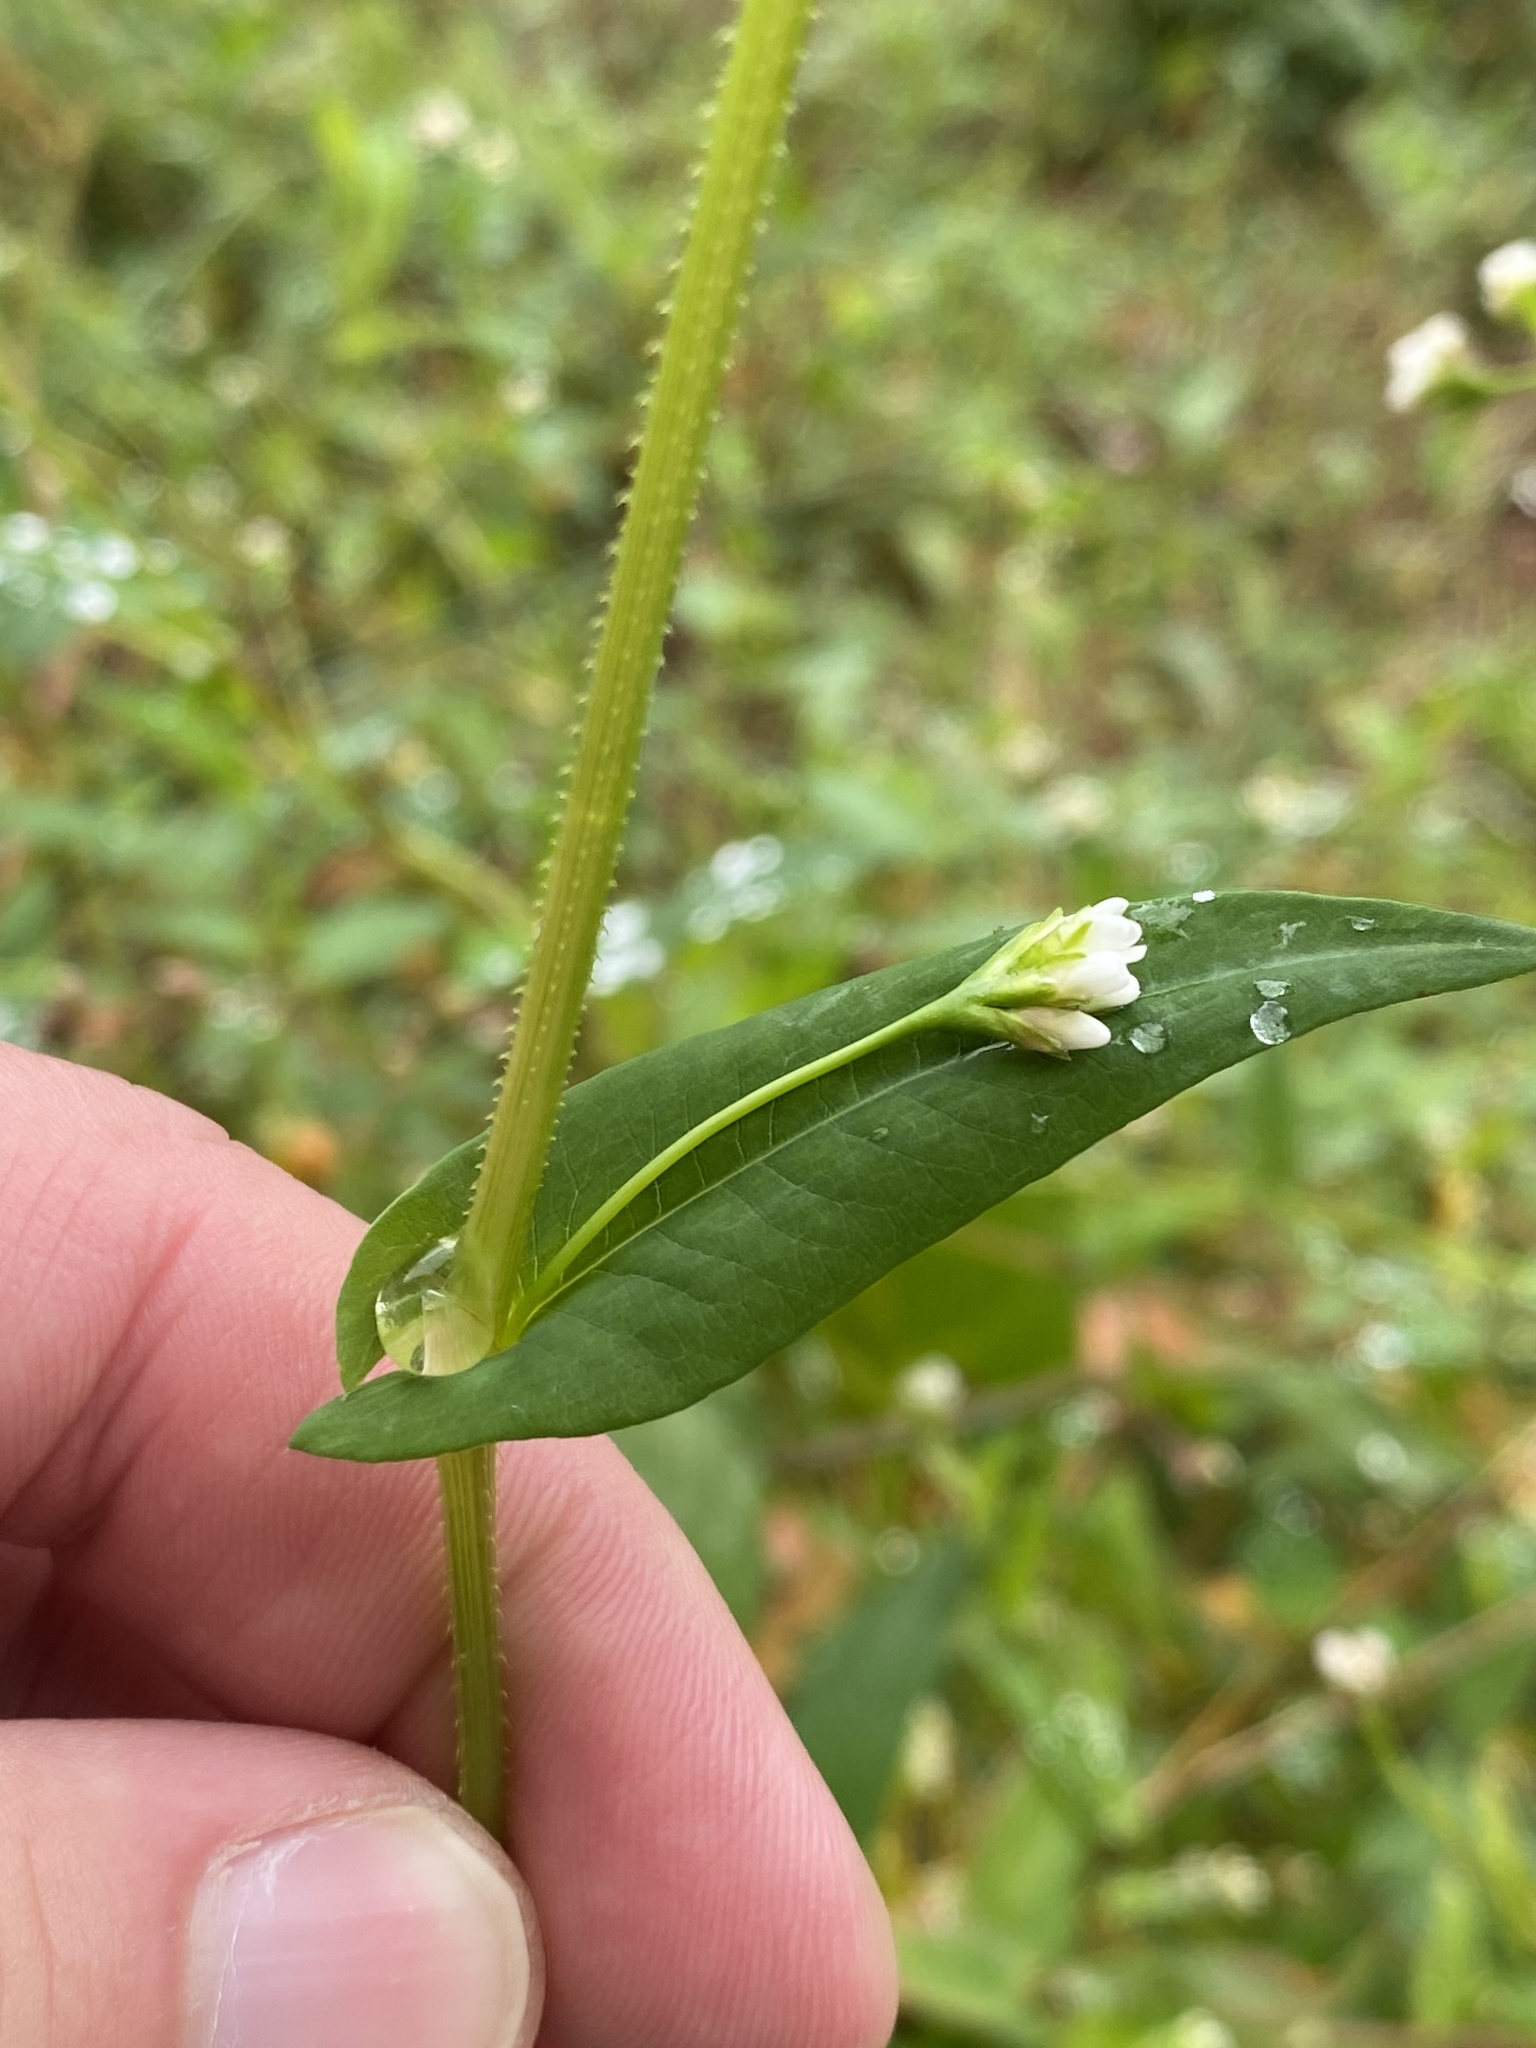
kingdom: Plantae
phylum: Tracheophyta
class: Magnoliopsida
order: Caryophyllales
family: Polygonaceae
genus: Persicaria
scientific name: Persicaria sagittata
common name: American tearthumb
